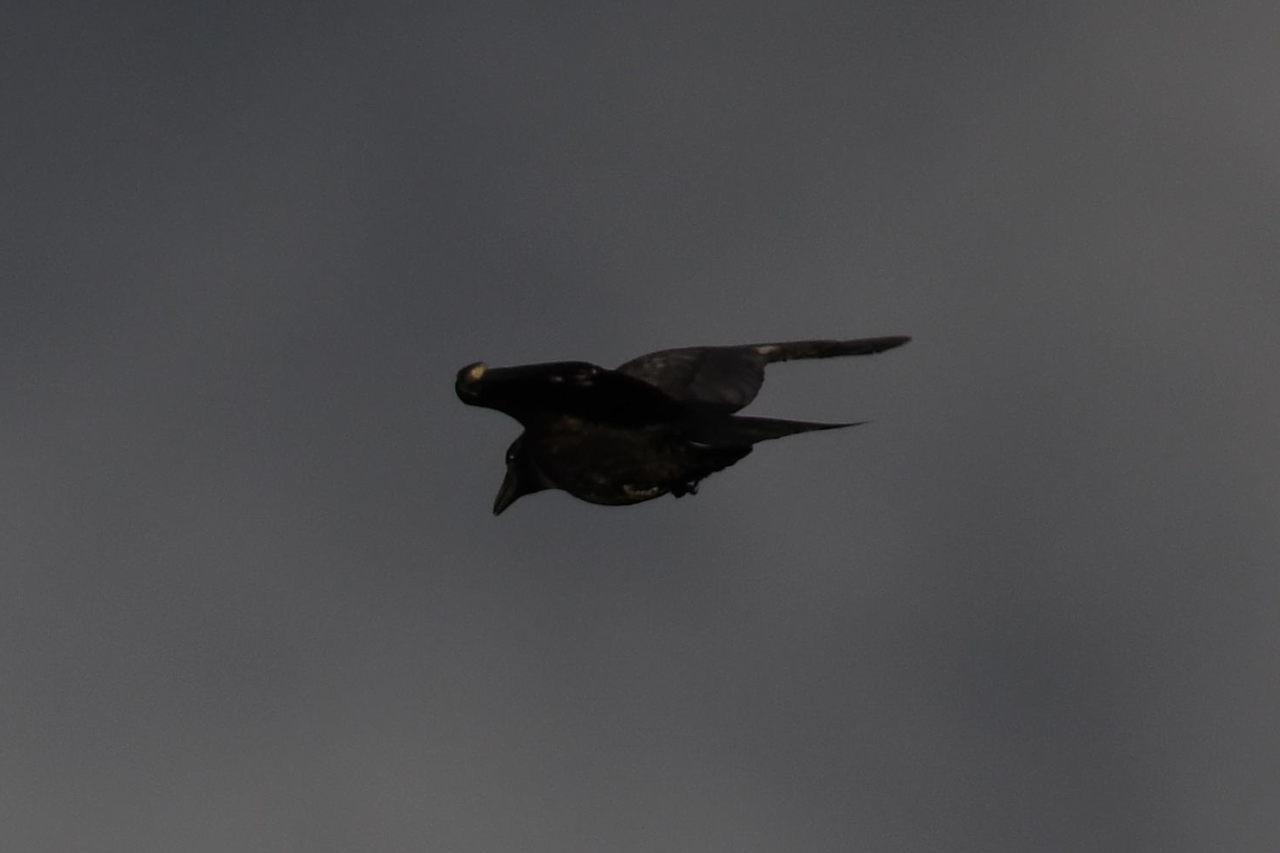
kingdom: Animalia
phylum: Chordata
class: Aves
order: Passeriformes
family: Corvidae
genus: Corvus
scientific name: Corvus corone
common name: Carrion crow
